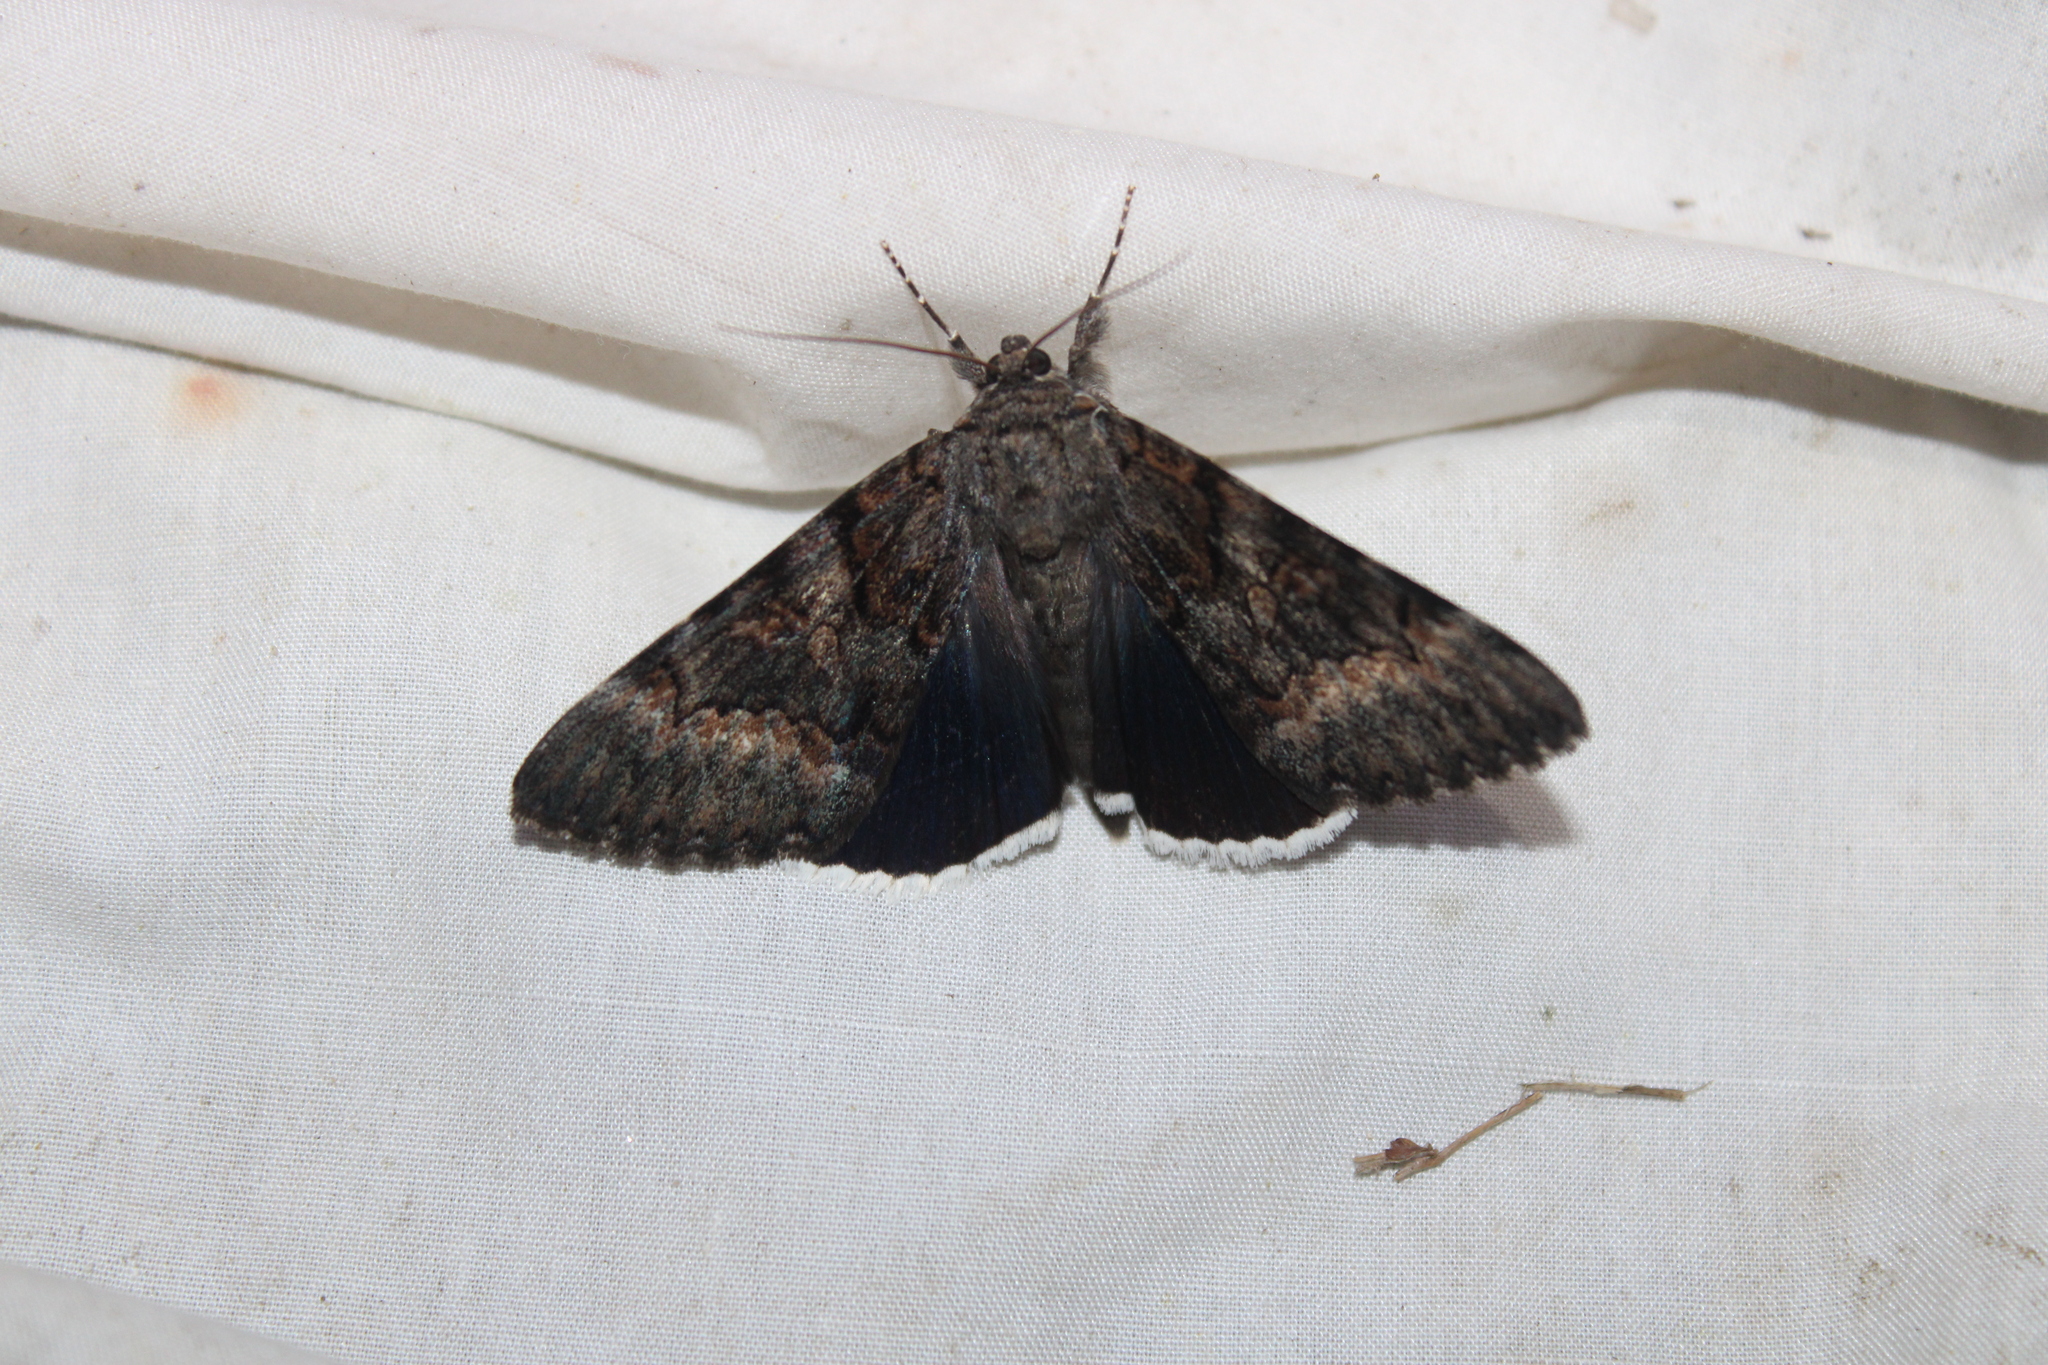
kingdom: Animalia
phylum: Arthropoda
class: Insecta
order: Lepidoptera
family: Erebidae
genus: Catocala
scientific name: Catocala epione
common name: Epione underwing
